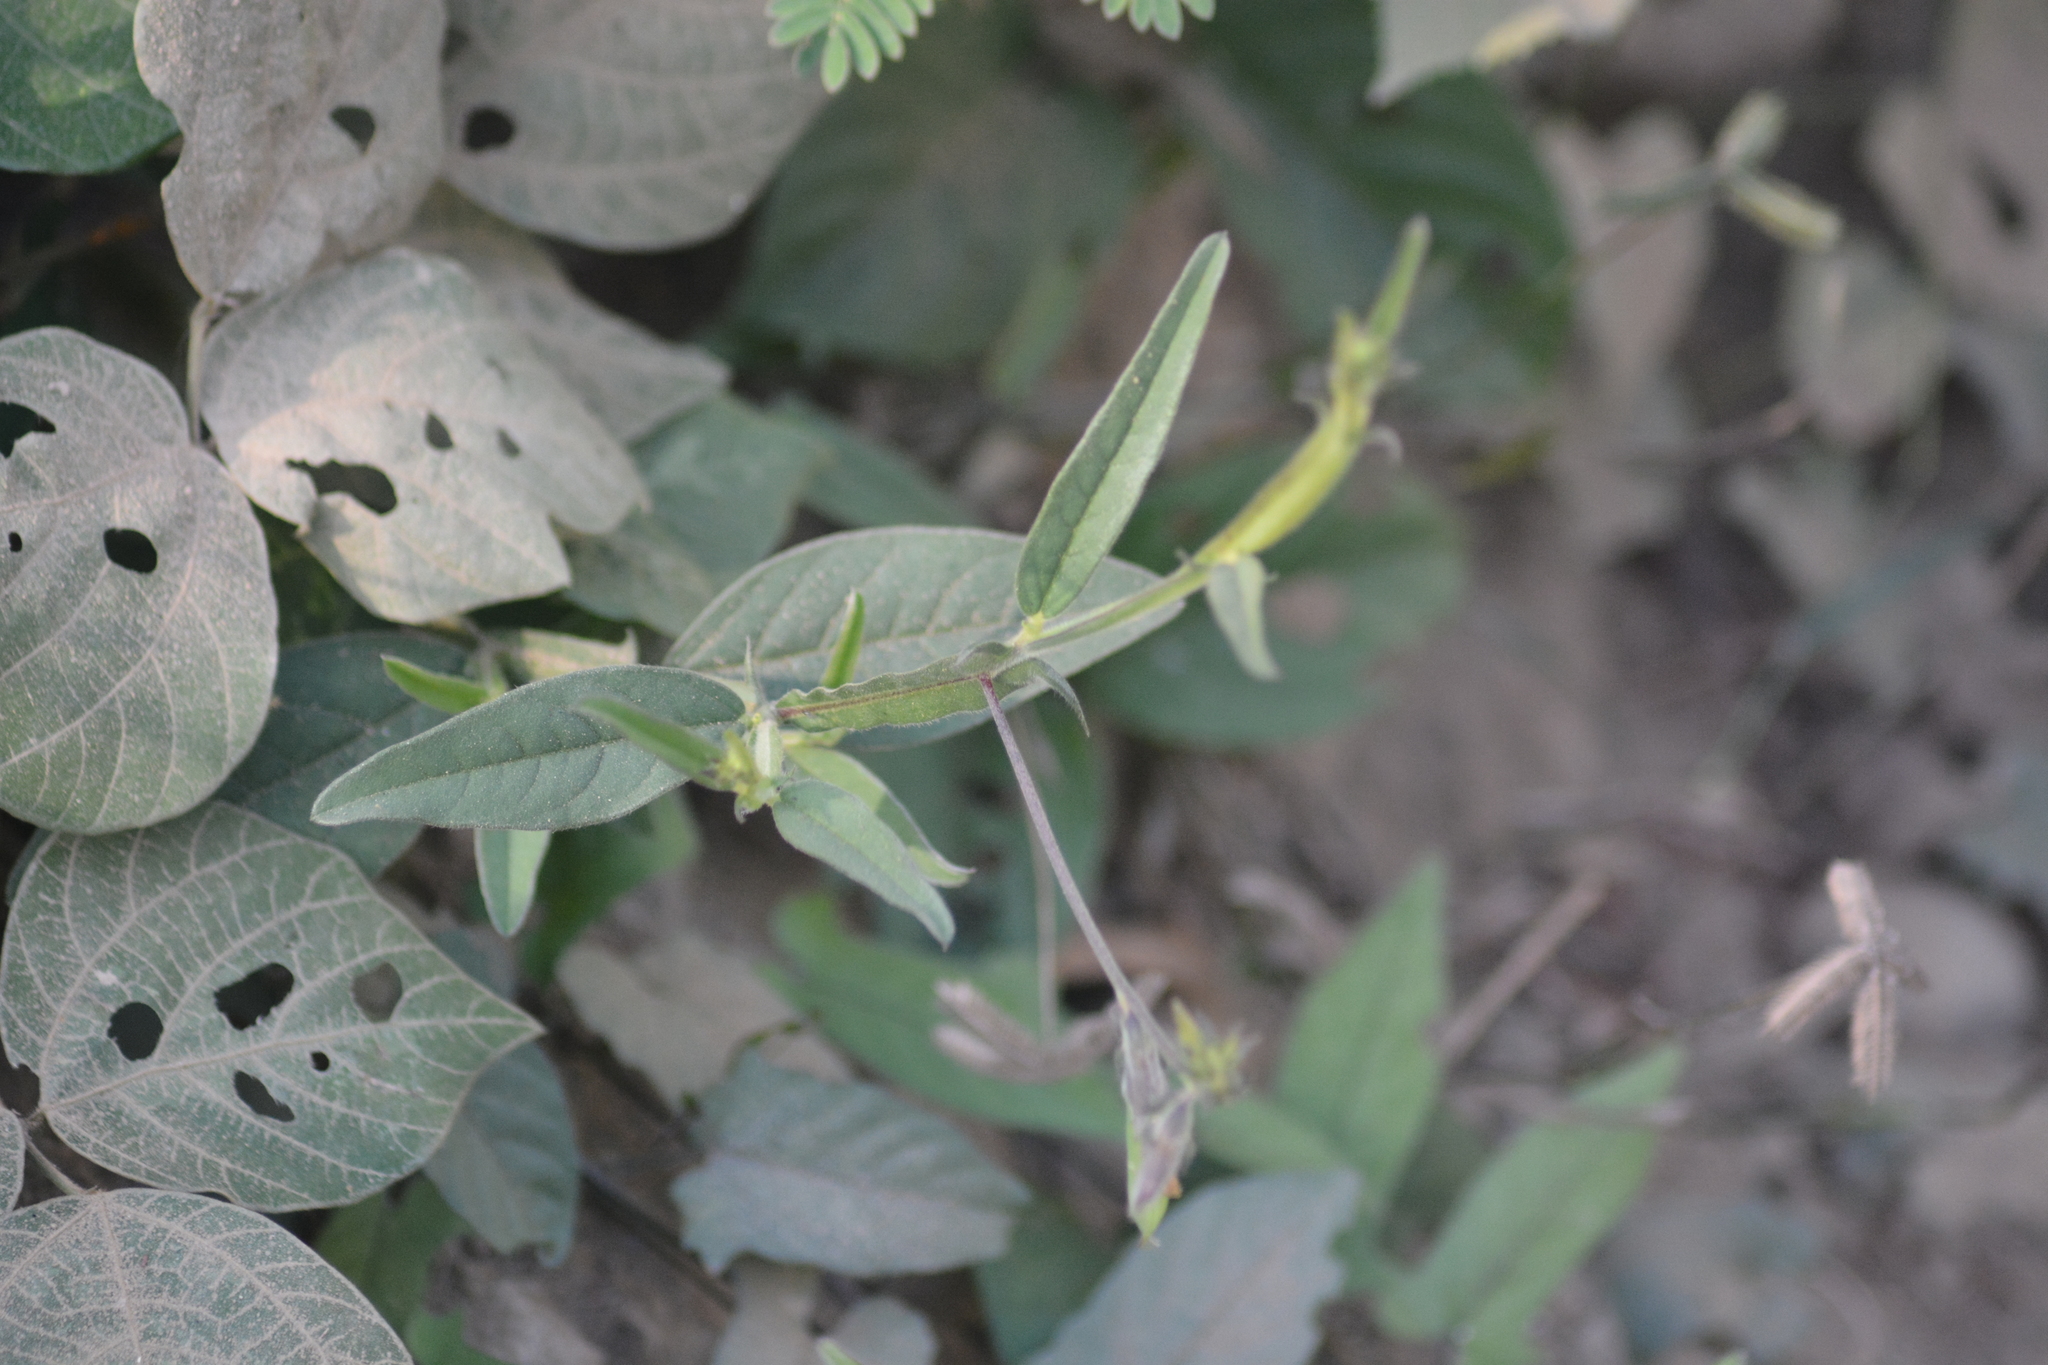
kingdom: Plantae
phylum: Tracheophyta
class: Magnoliopsida
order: Fabales
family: Fabaceae
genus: Crotalaria
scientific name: Crotalaria alata
